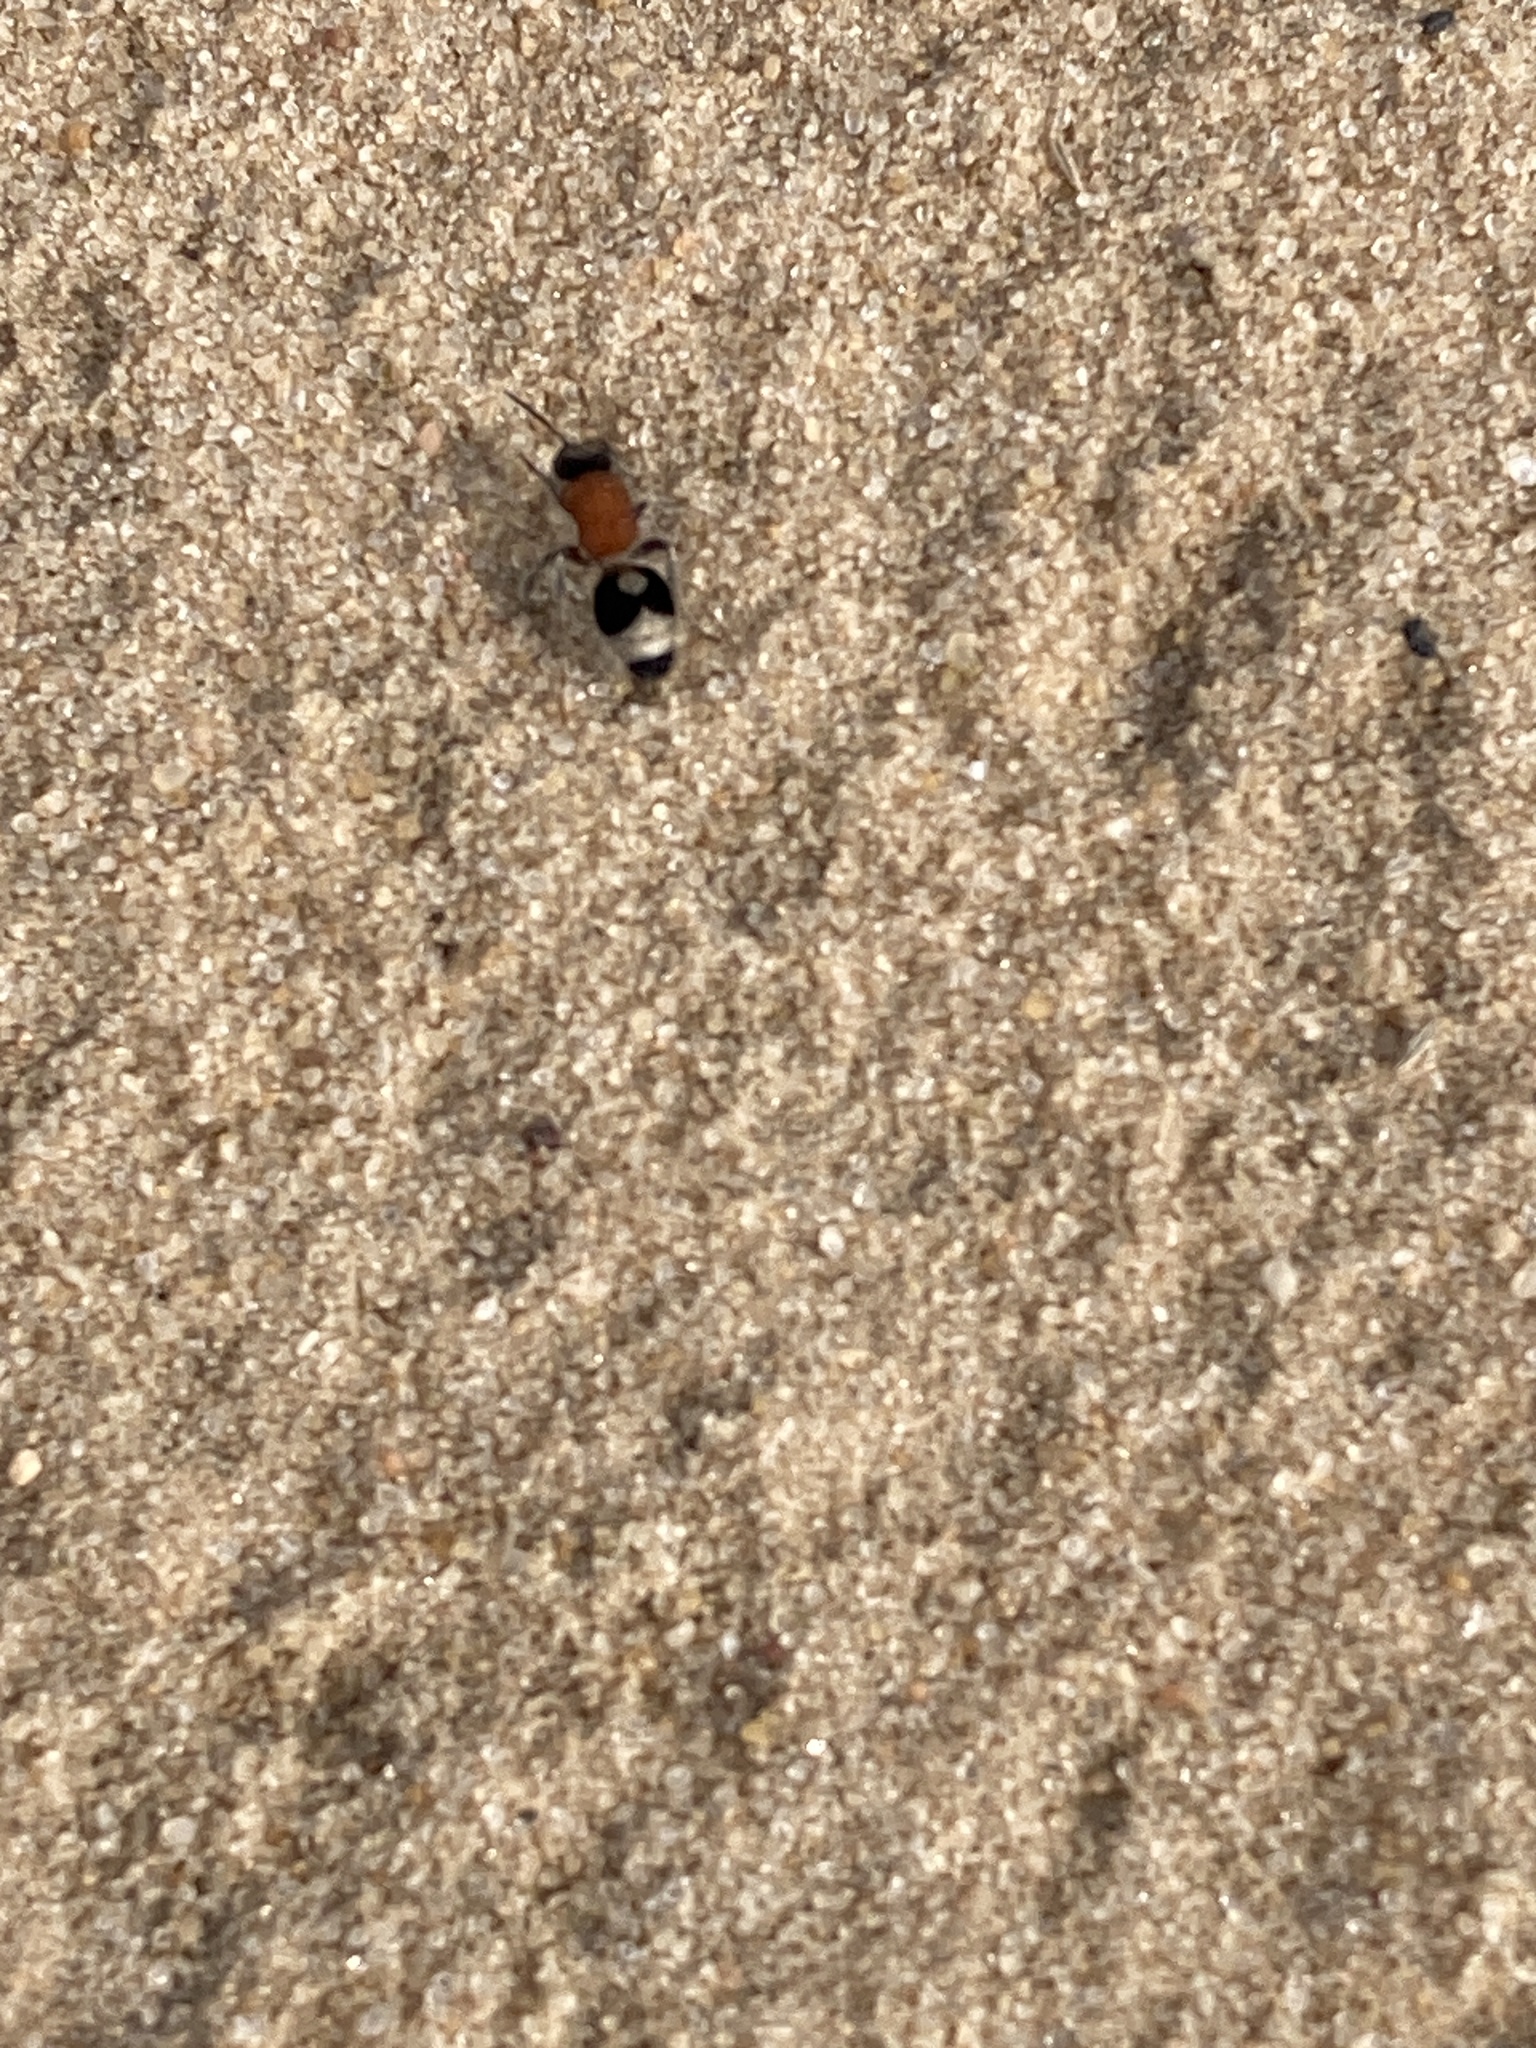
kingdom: Animalia
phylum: Arthropoda
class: Insecta
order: Hymenoptera
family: Mutillidae
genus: Nemka
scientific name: Nemka viduata
